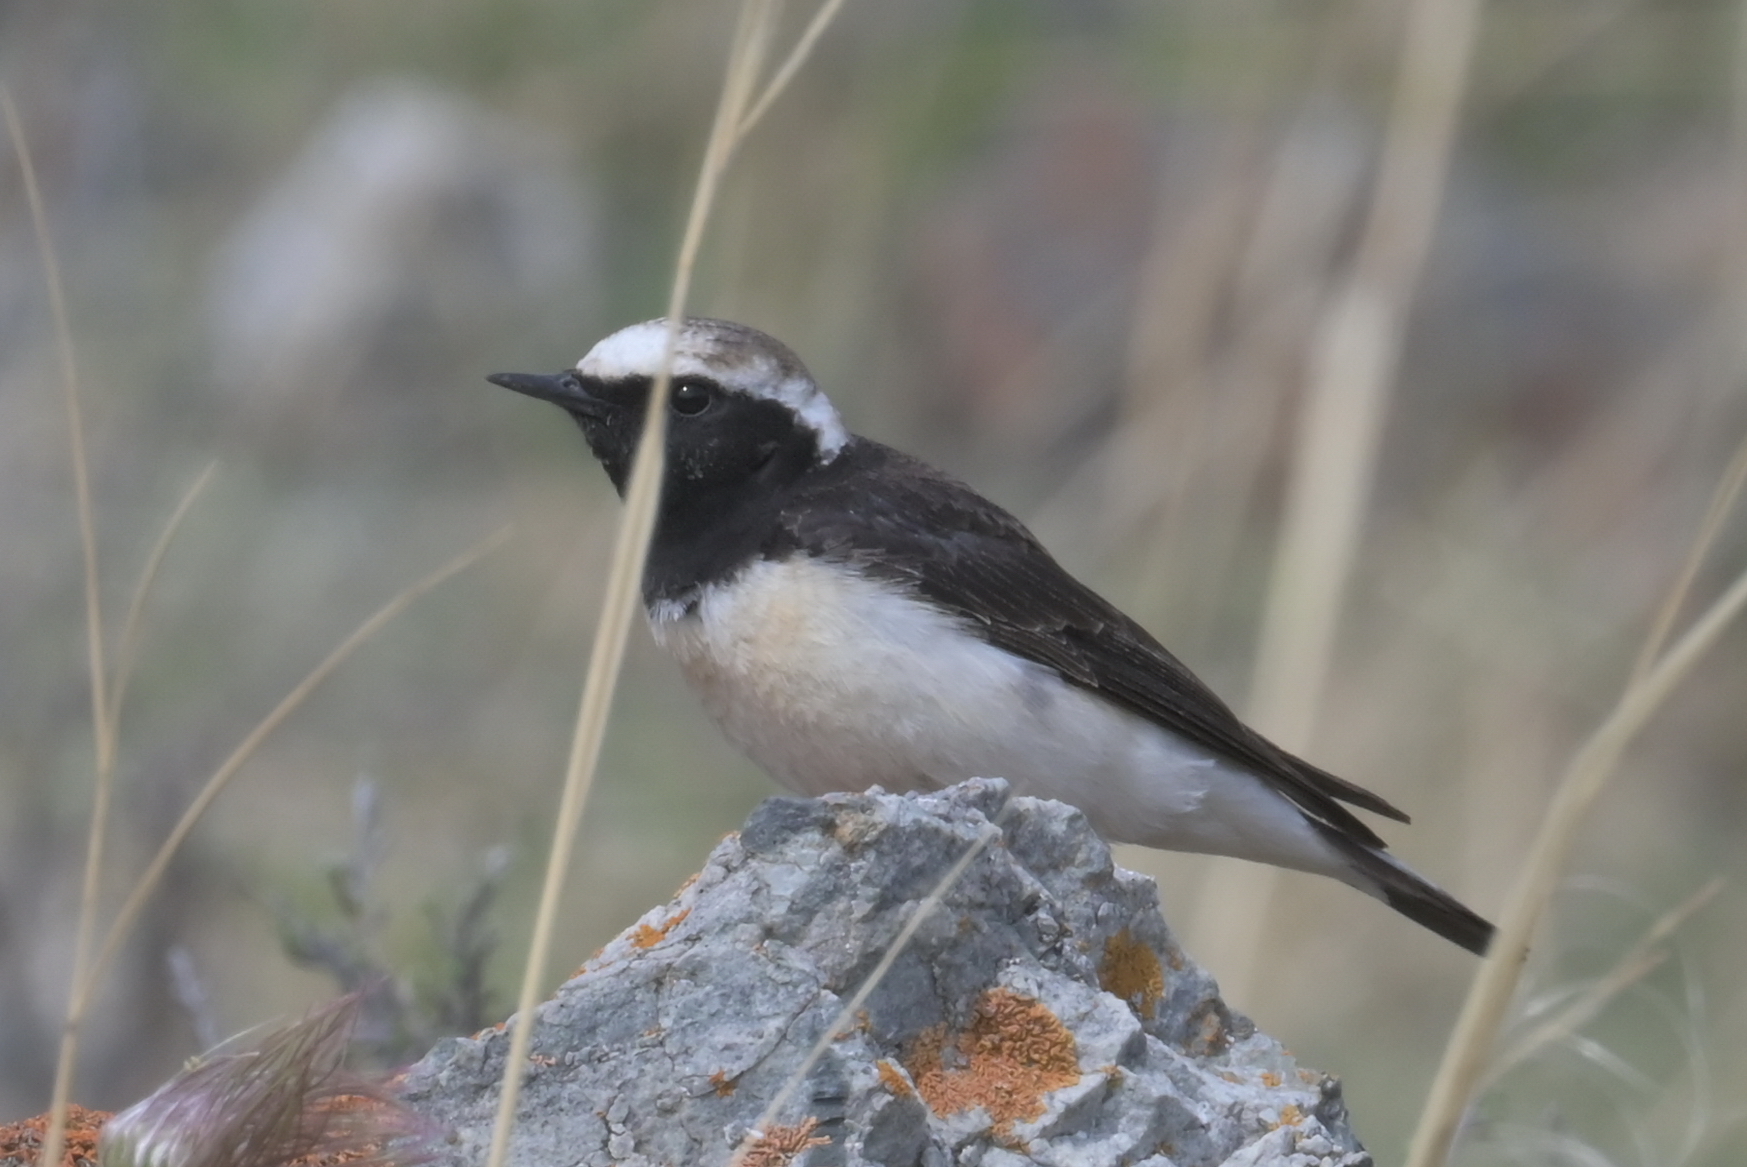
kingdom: Animalia
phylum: Chordata
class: Aves
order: Passeriformes
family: Muscicapidae
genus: Oenanthe
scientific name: Oenanthe pleschanka
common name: Pied wheatear
